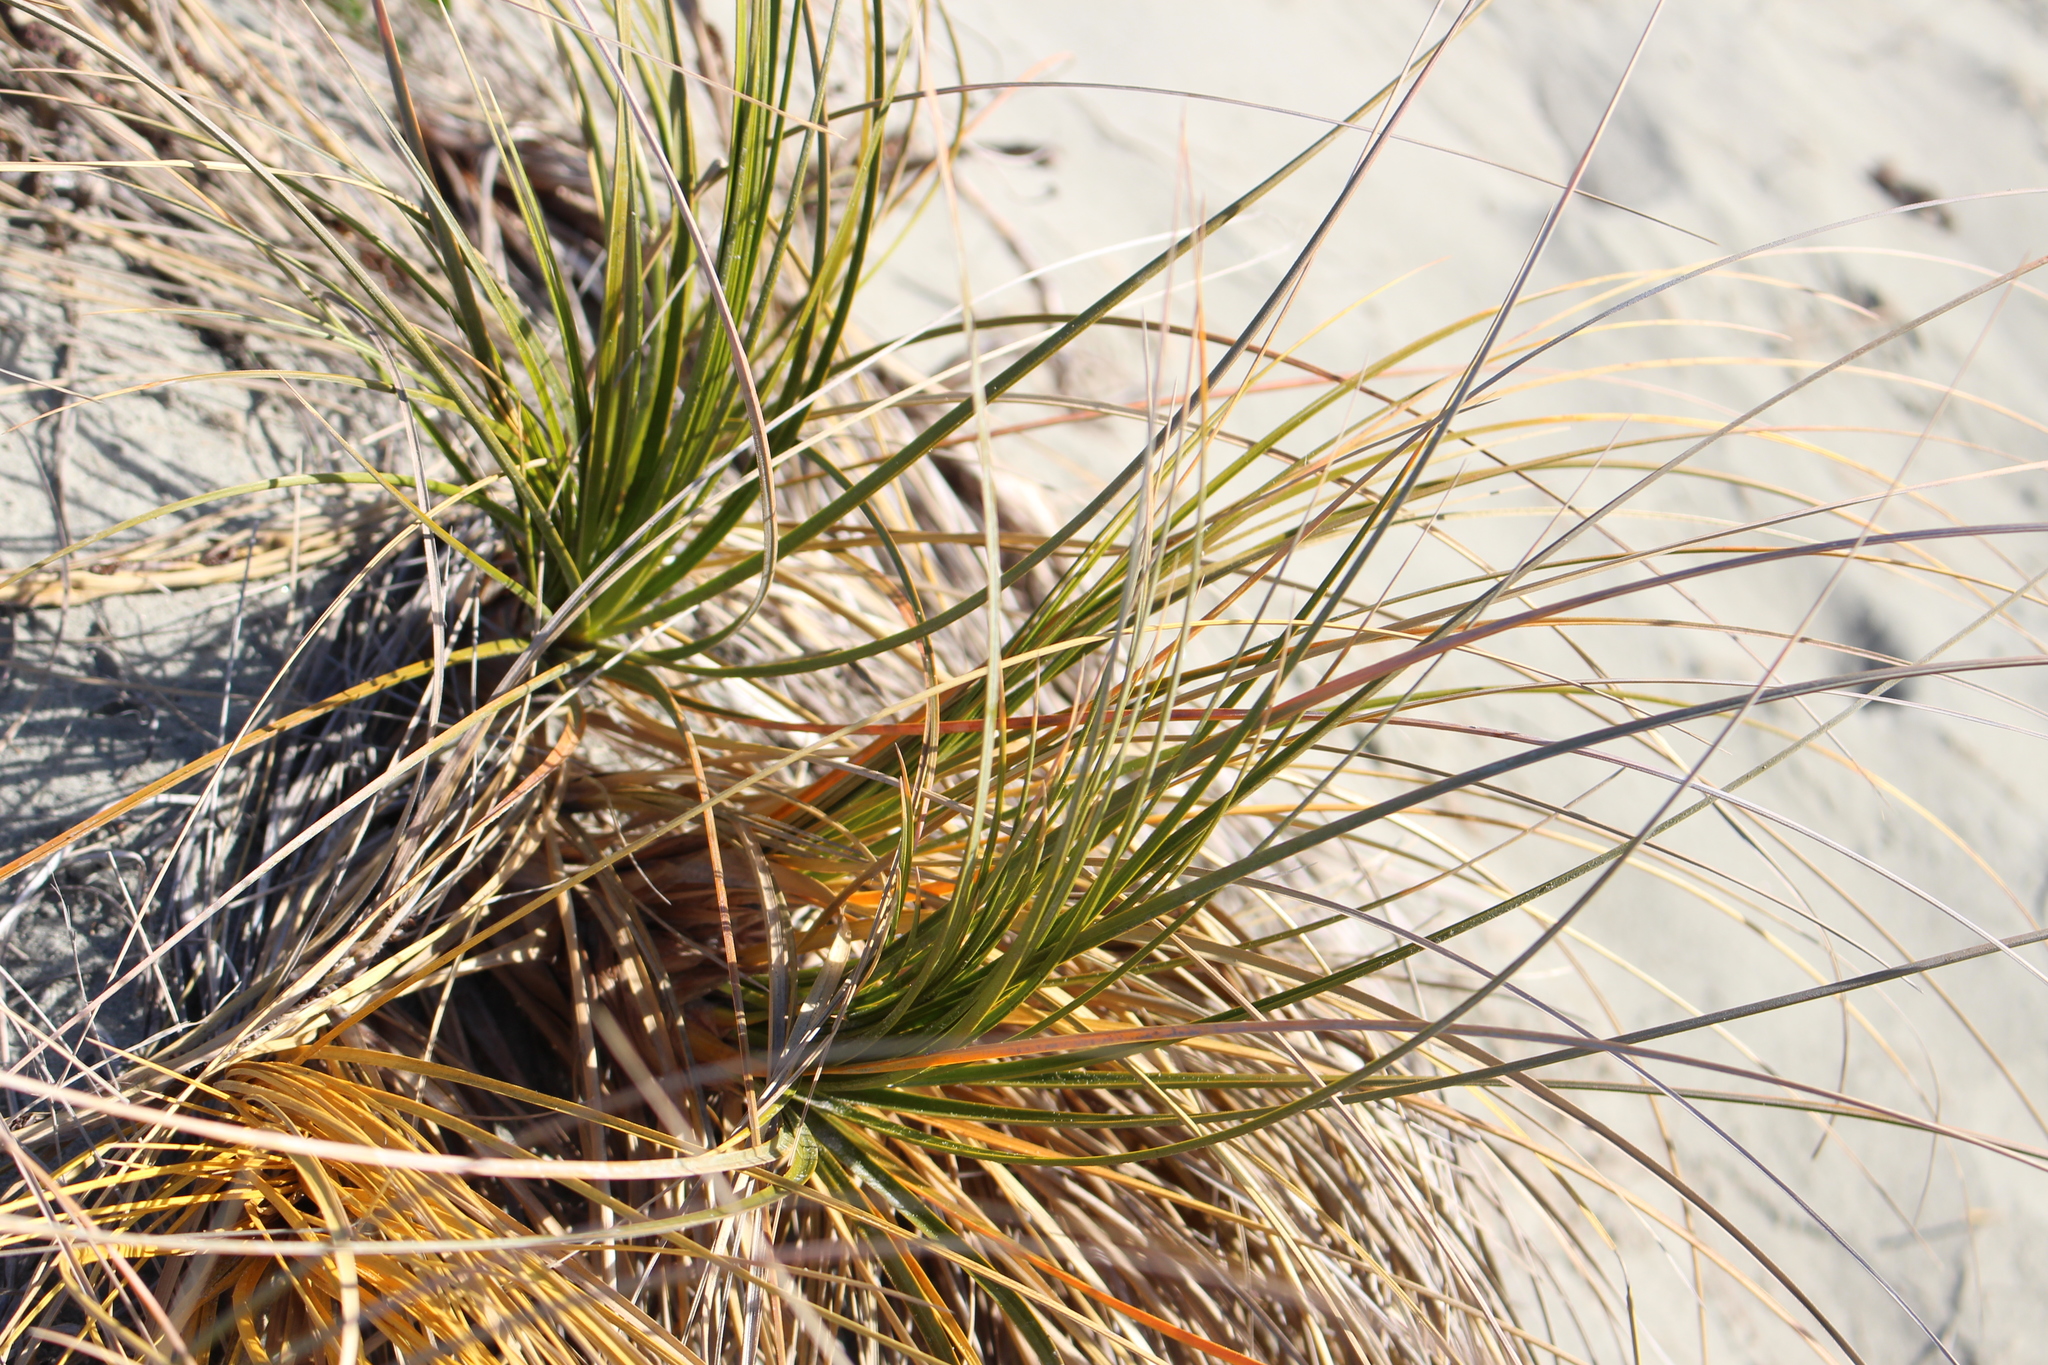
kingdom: Plantae
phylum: Tracheophyta
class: Liliopsida
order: Poales
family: Cyperaceae
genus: Ficinia
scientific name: Ficinia spiralis
